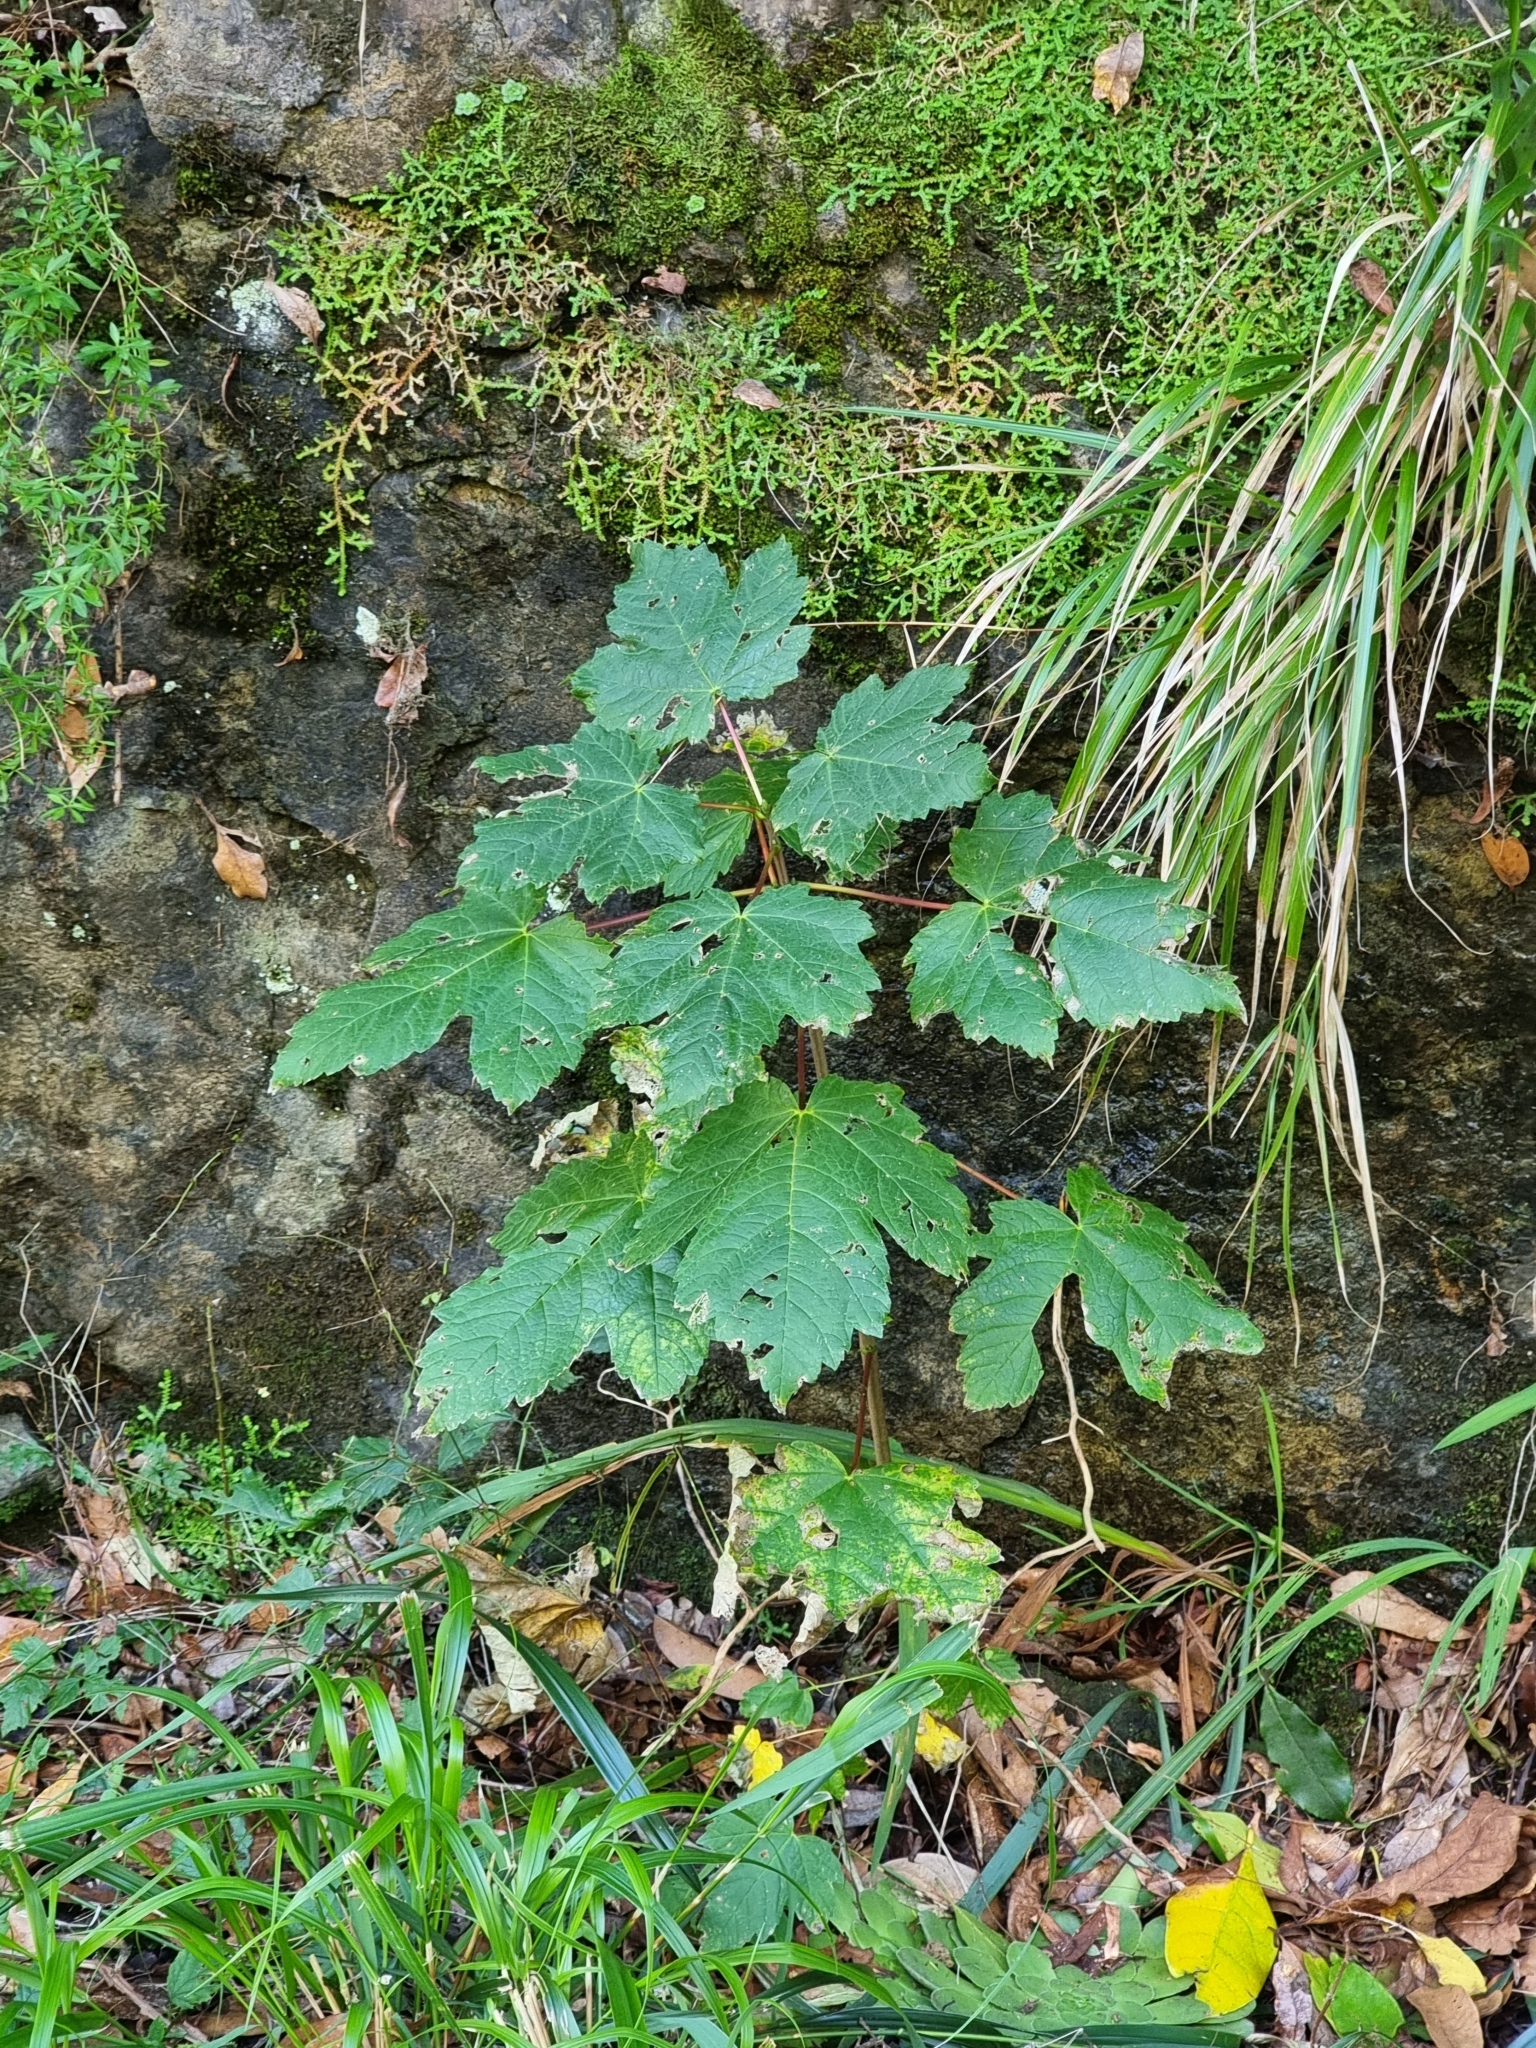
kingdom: Plantae
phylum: Tracheophyta
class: Magnoliopsida
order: Sapindales
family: Sapindaceae
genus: Acer
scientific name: Acer pseudoplatanus
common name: Sycamore
